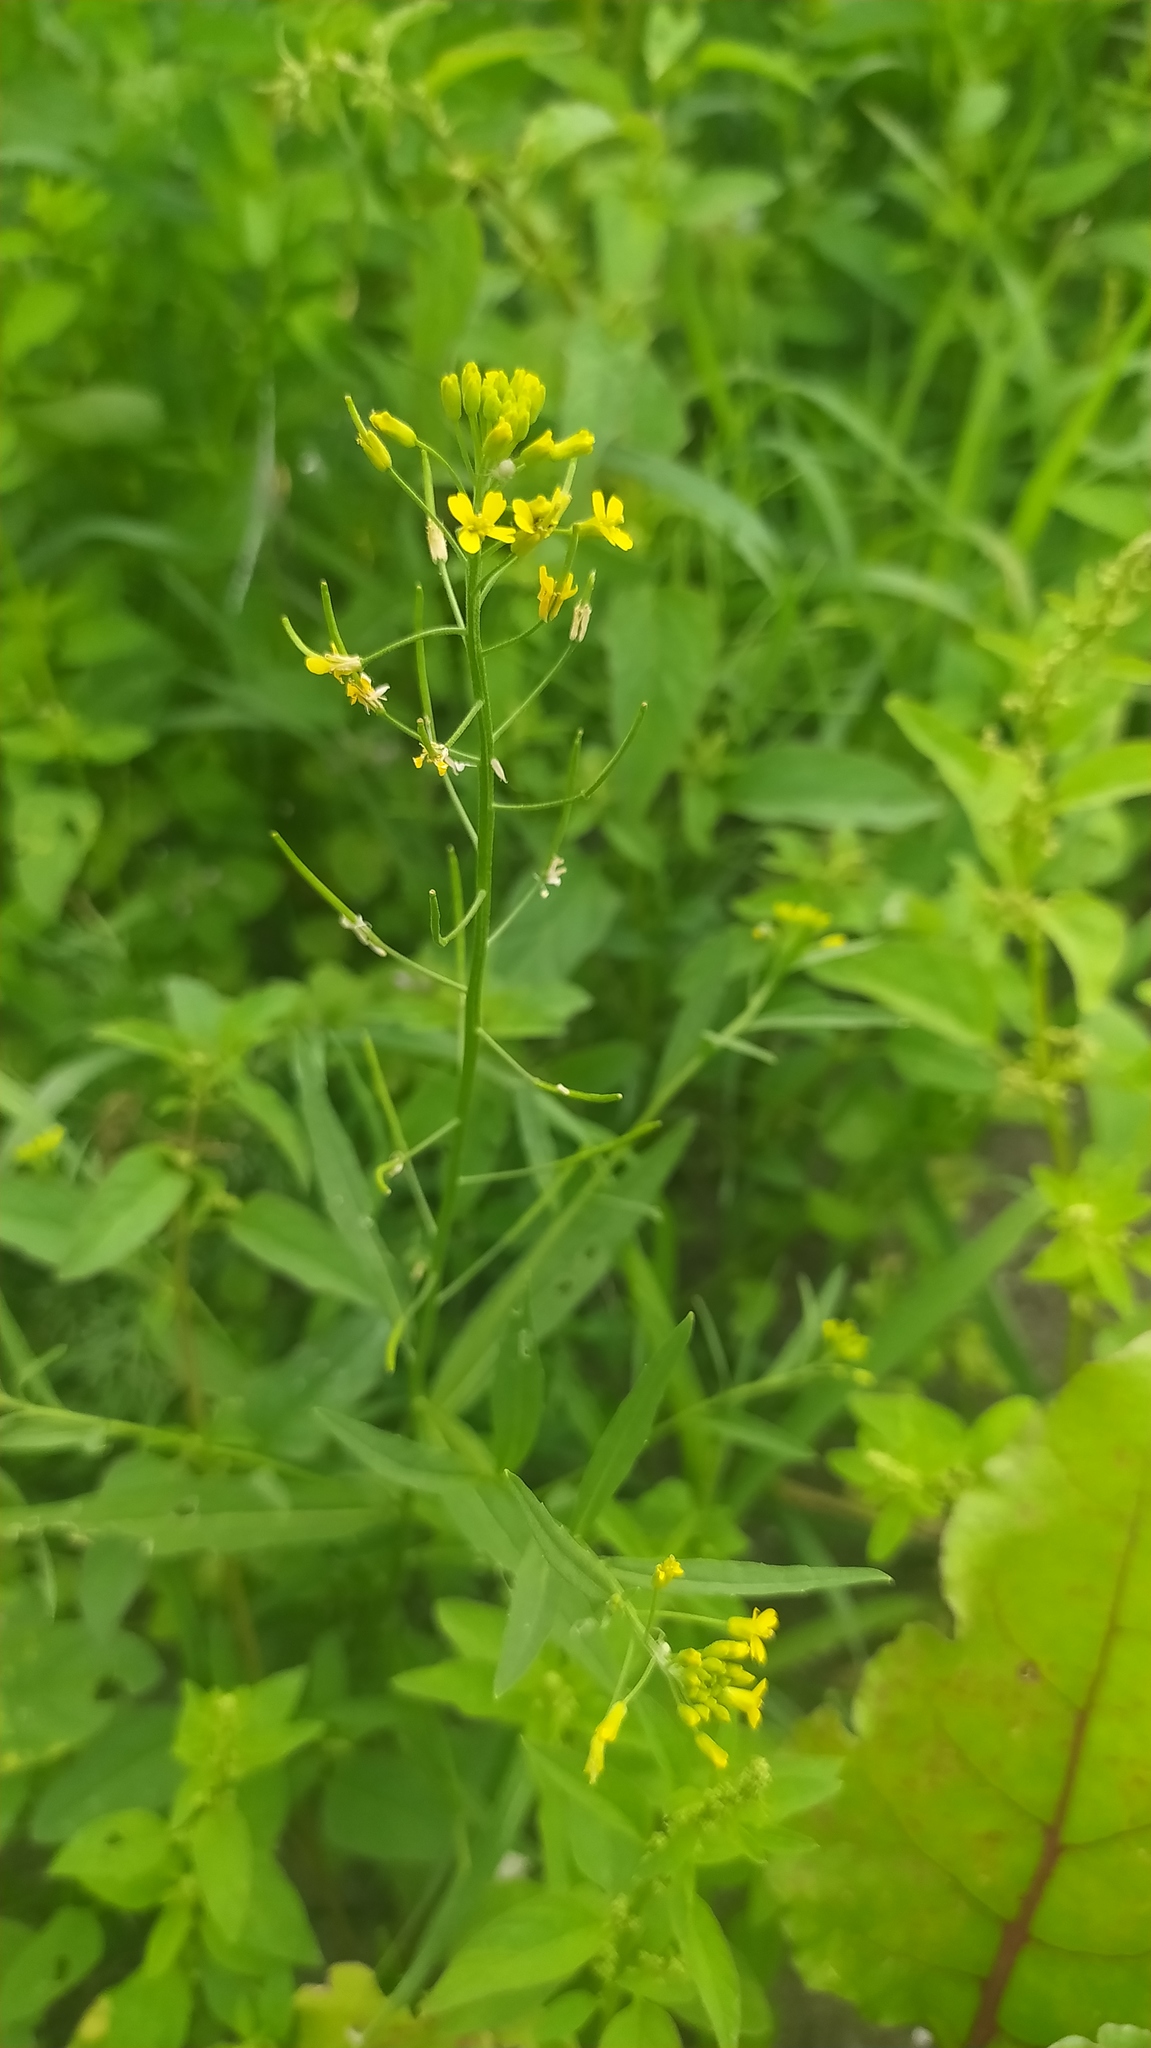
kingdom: Plantae
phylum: Tracheophyta
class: Magnoliopsida
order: Brassicales
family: Brassicaceae
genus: Erysimum
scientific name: Erysimum cheiranthoides
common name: Treacle mustard
